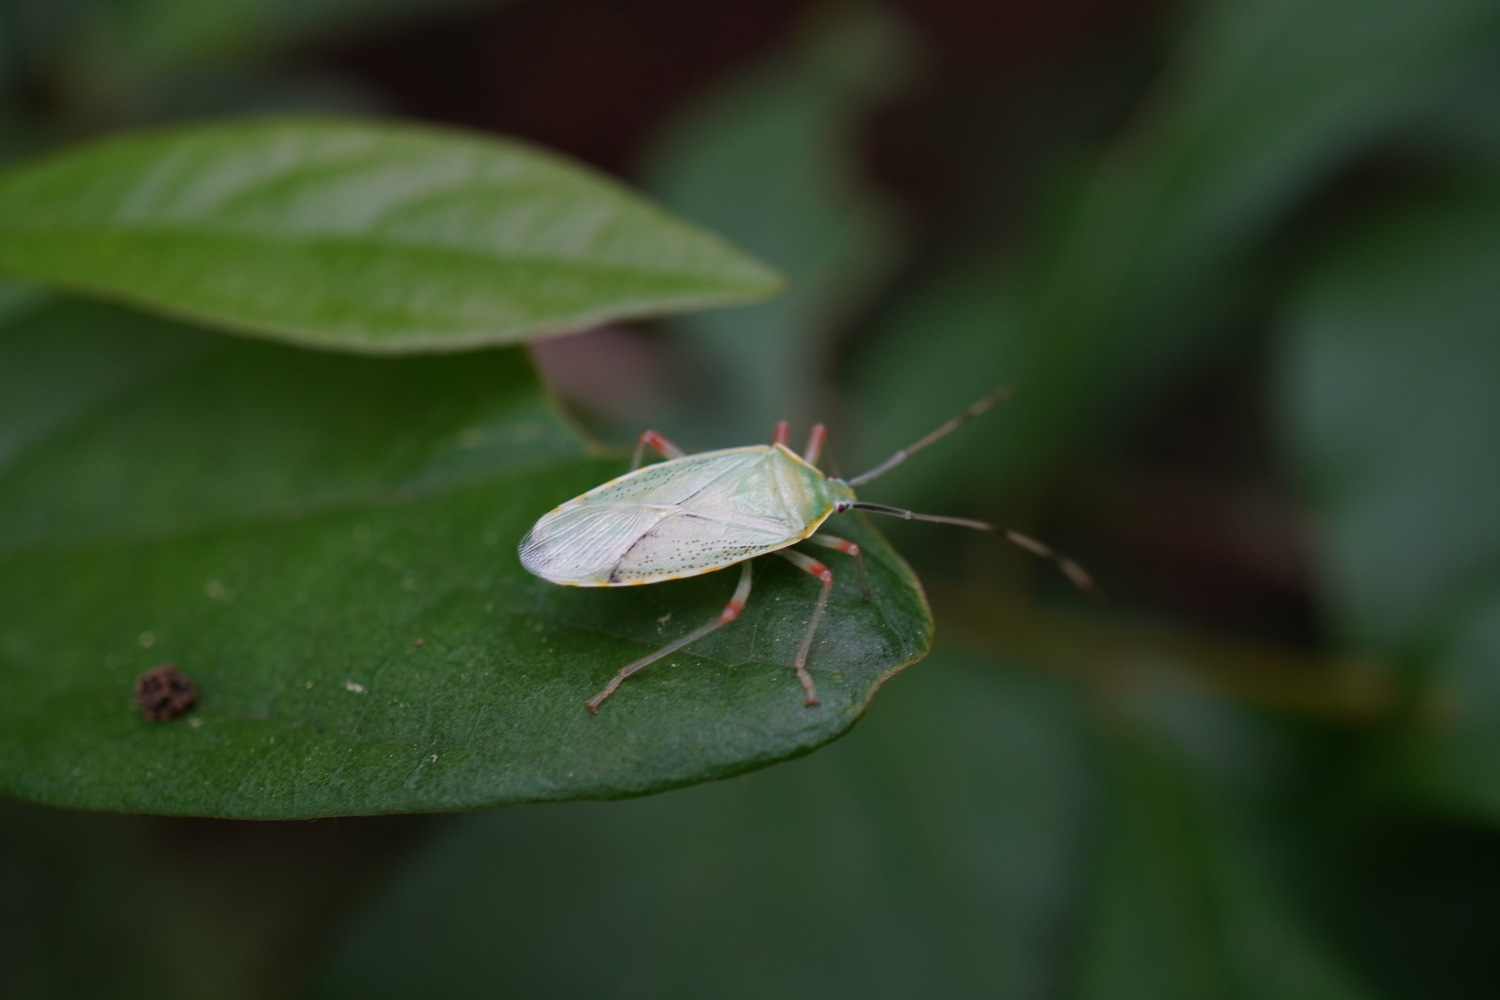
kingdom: Animalia
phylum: Arthropoda
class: Insecta
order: Hemiptera
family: Urostylididae
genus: Urostylis
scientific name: Urostylis lateralis
